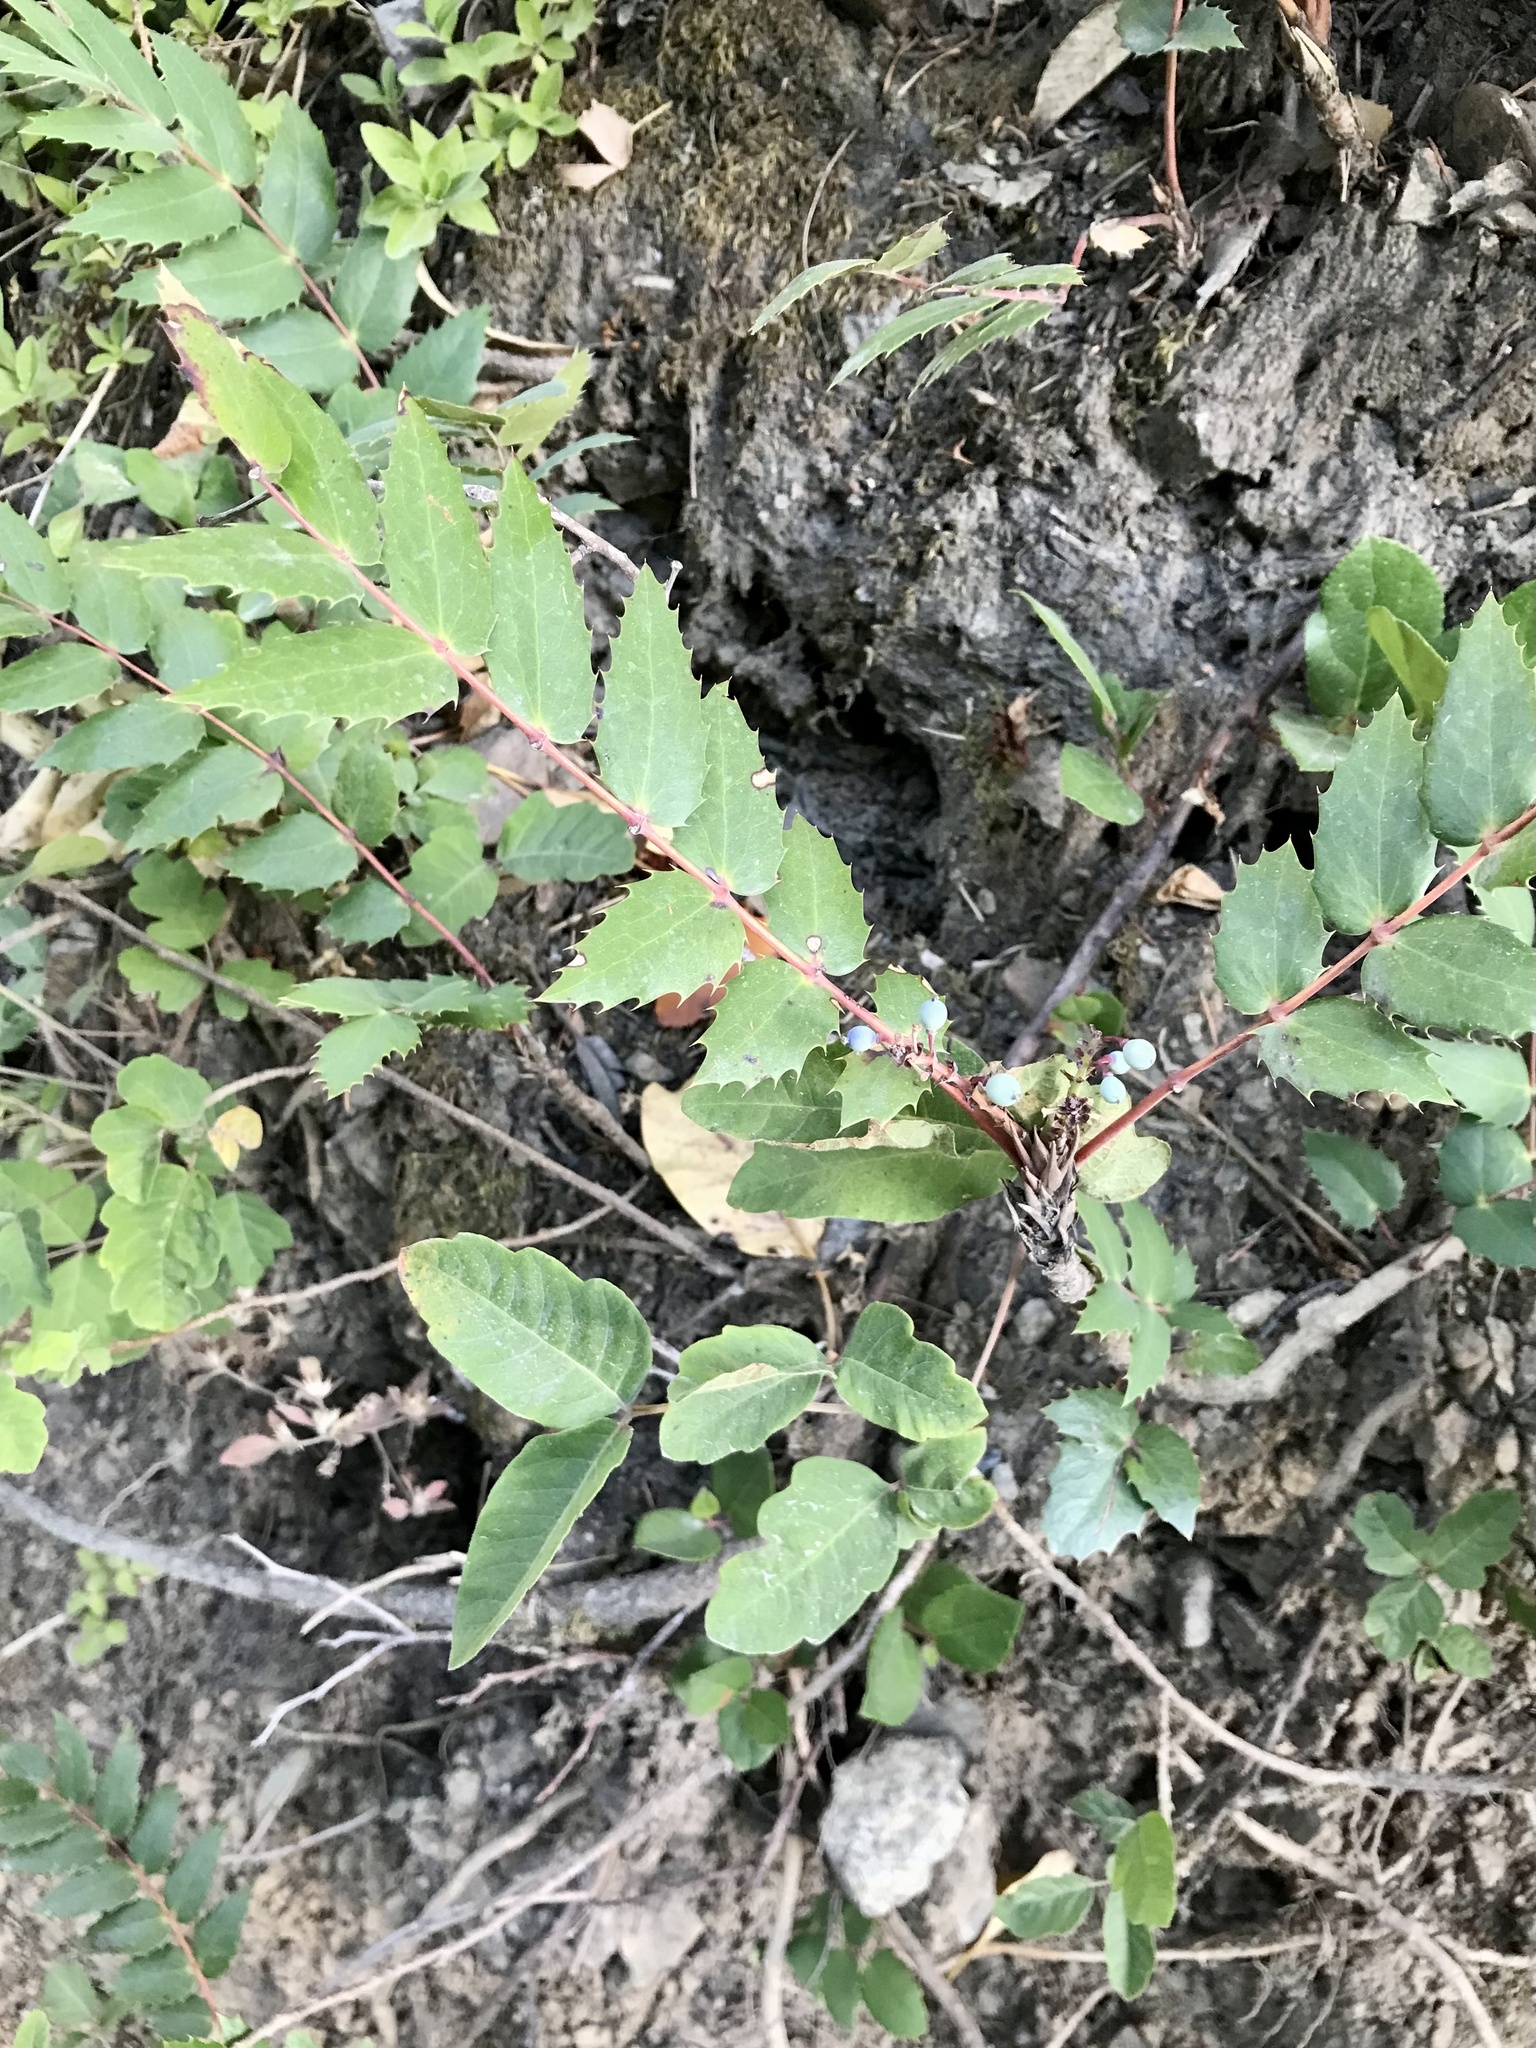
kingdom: Plantae
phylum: Tracheophyta
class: Magnoliopsida
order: Ranunculales
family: Berberidaceae
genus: Mahonia
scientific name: Mahonia nervosa
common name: Cascade oregon-grape
